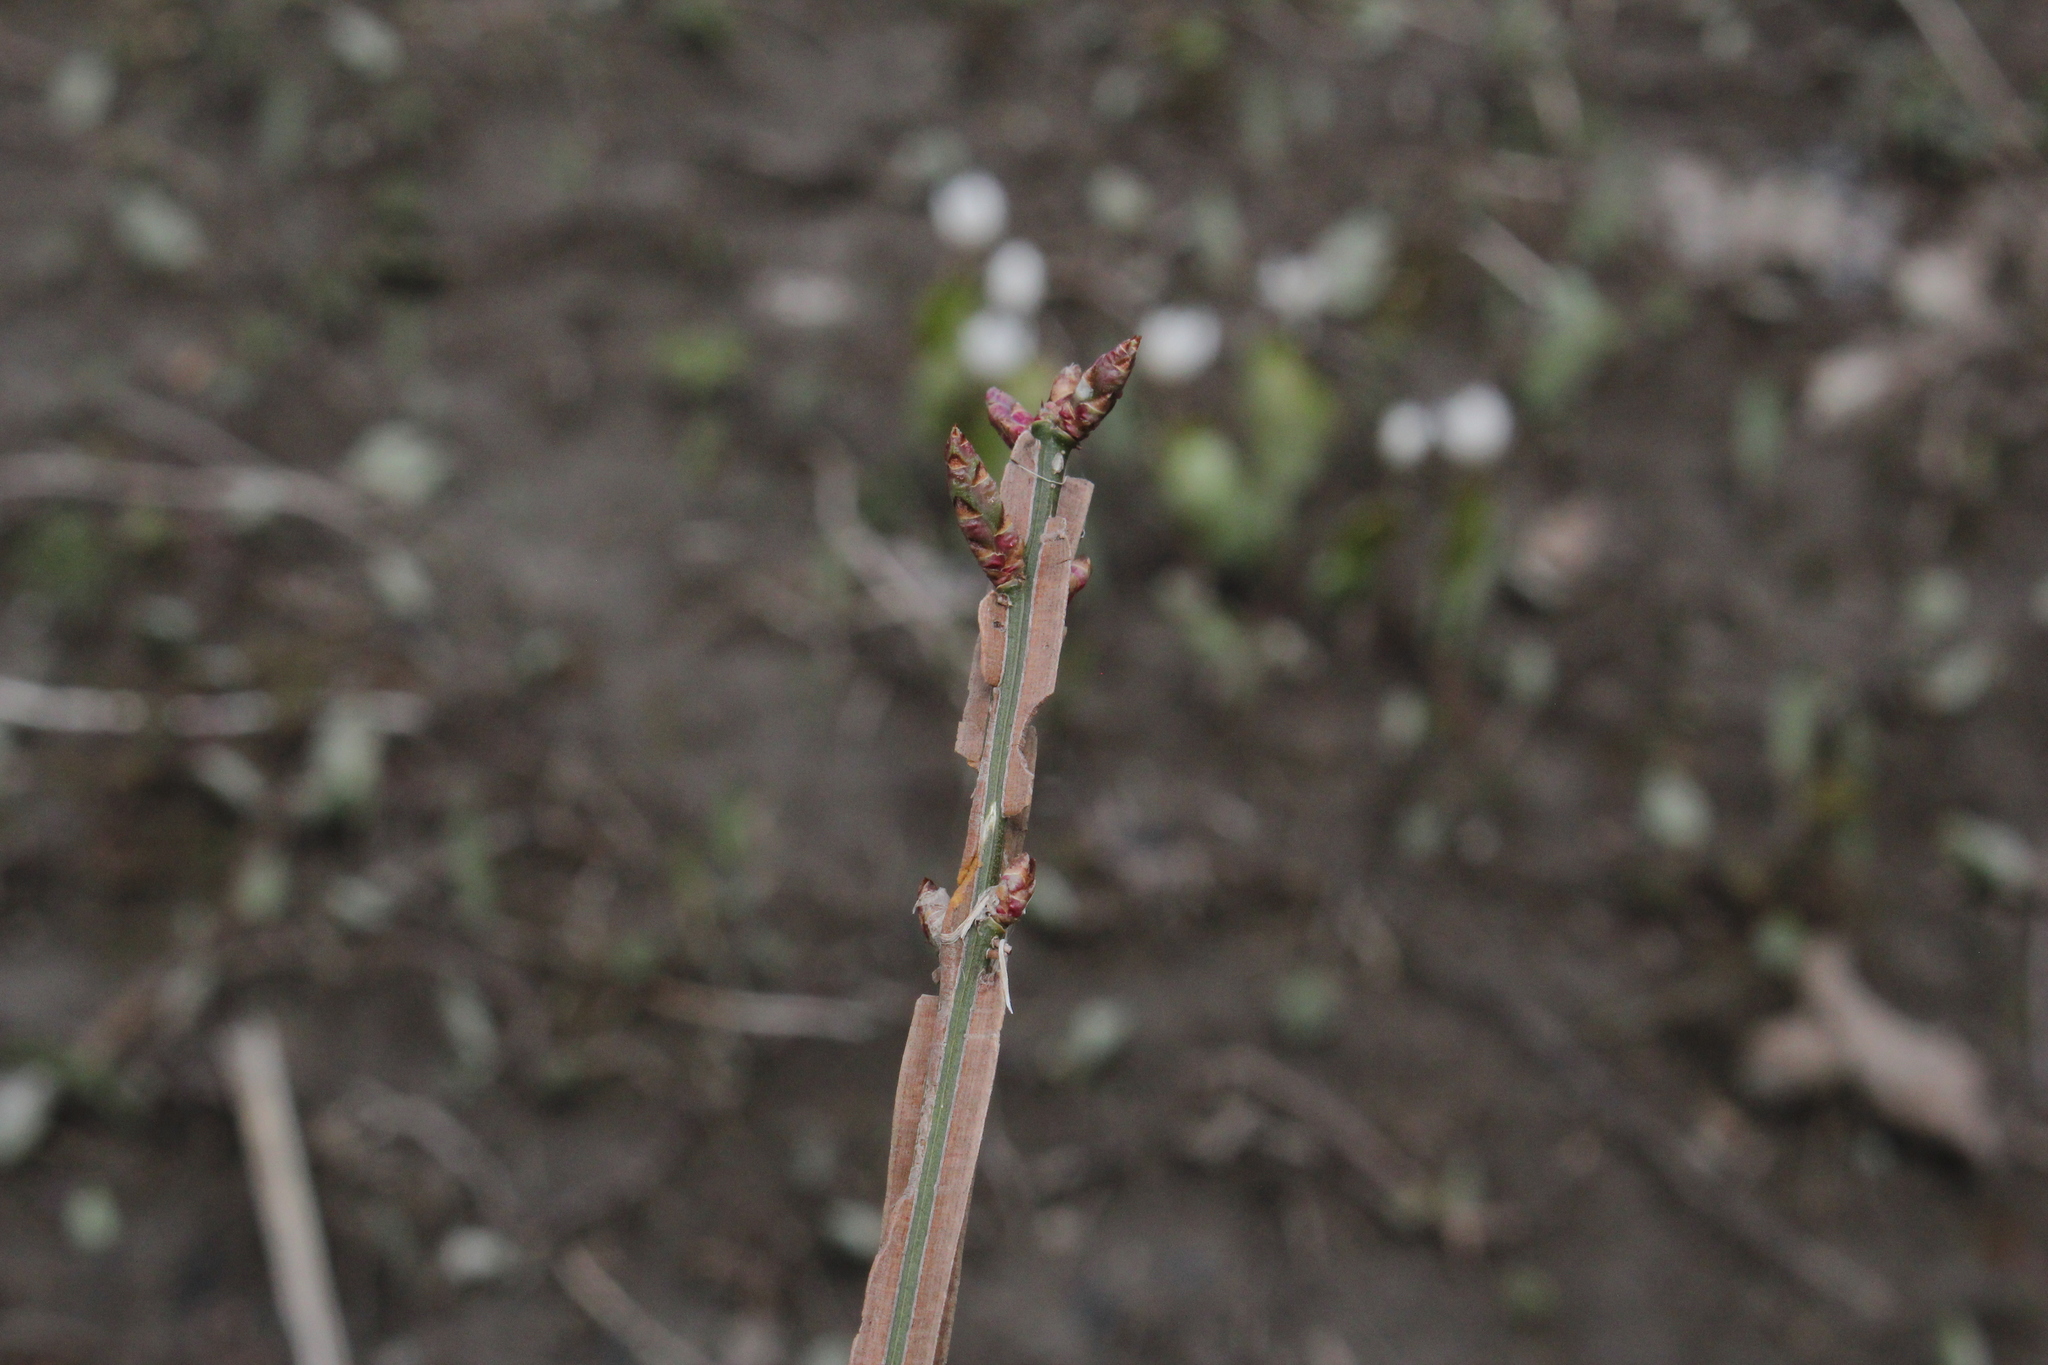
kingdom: Plantae
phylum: Tracheophyta
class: Magnoliopsida
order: Celastrales
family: Celastraceae
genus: Euonymus
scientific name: Euonymus alatus
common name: Winged euonymus
